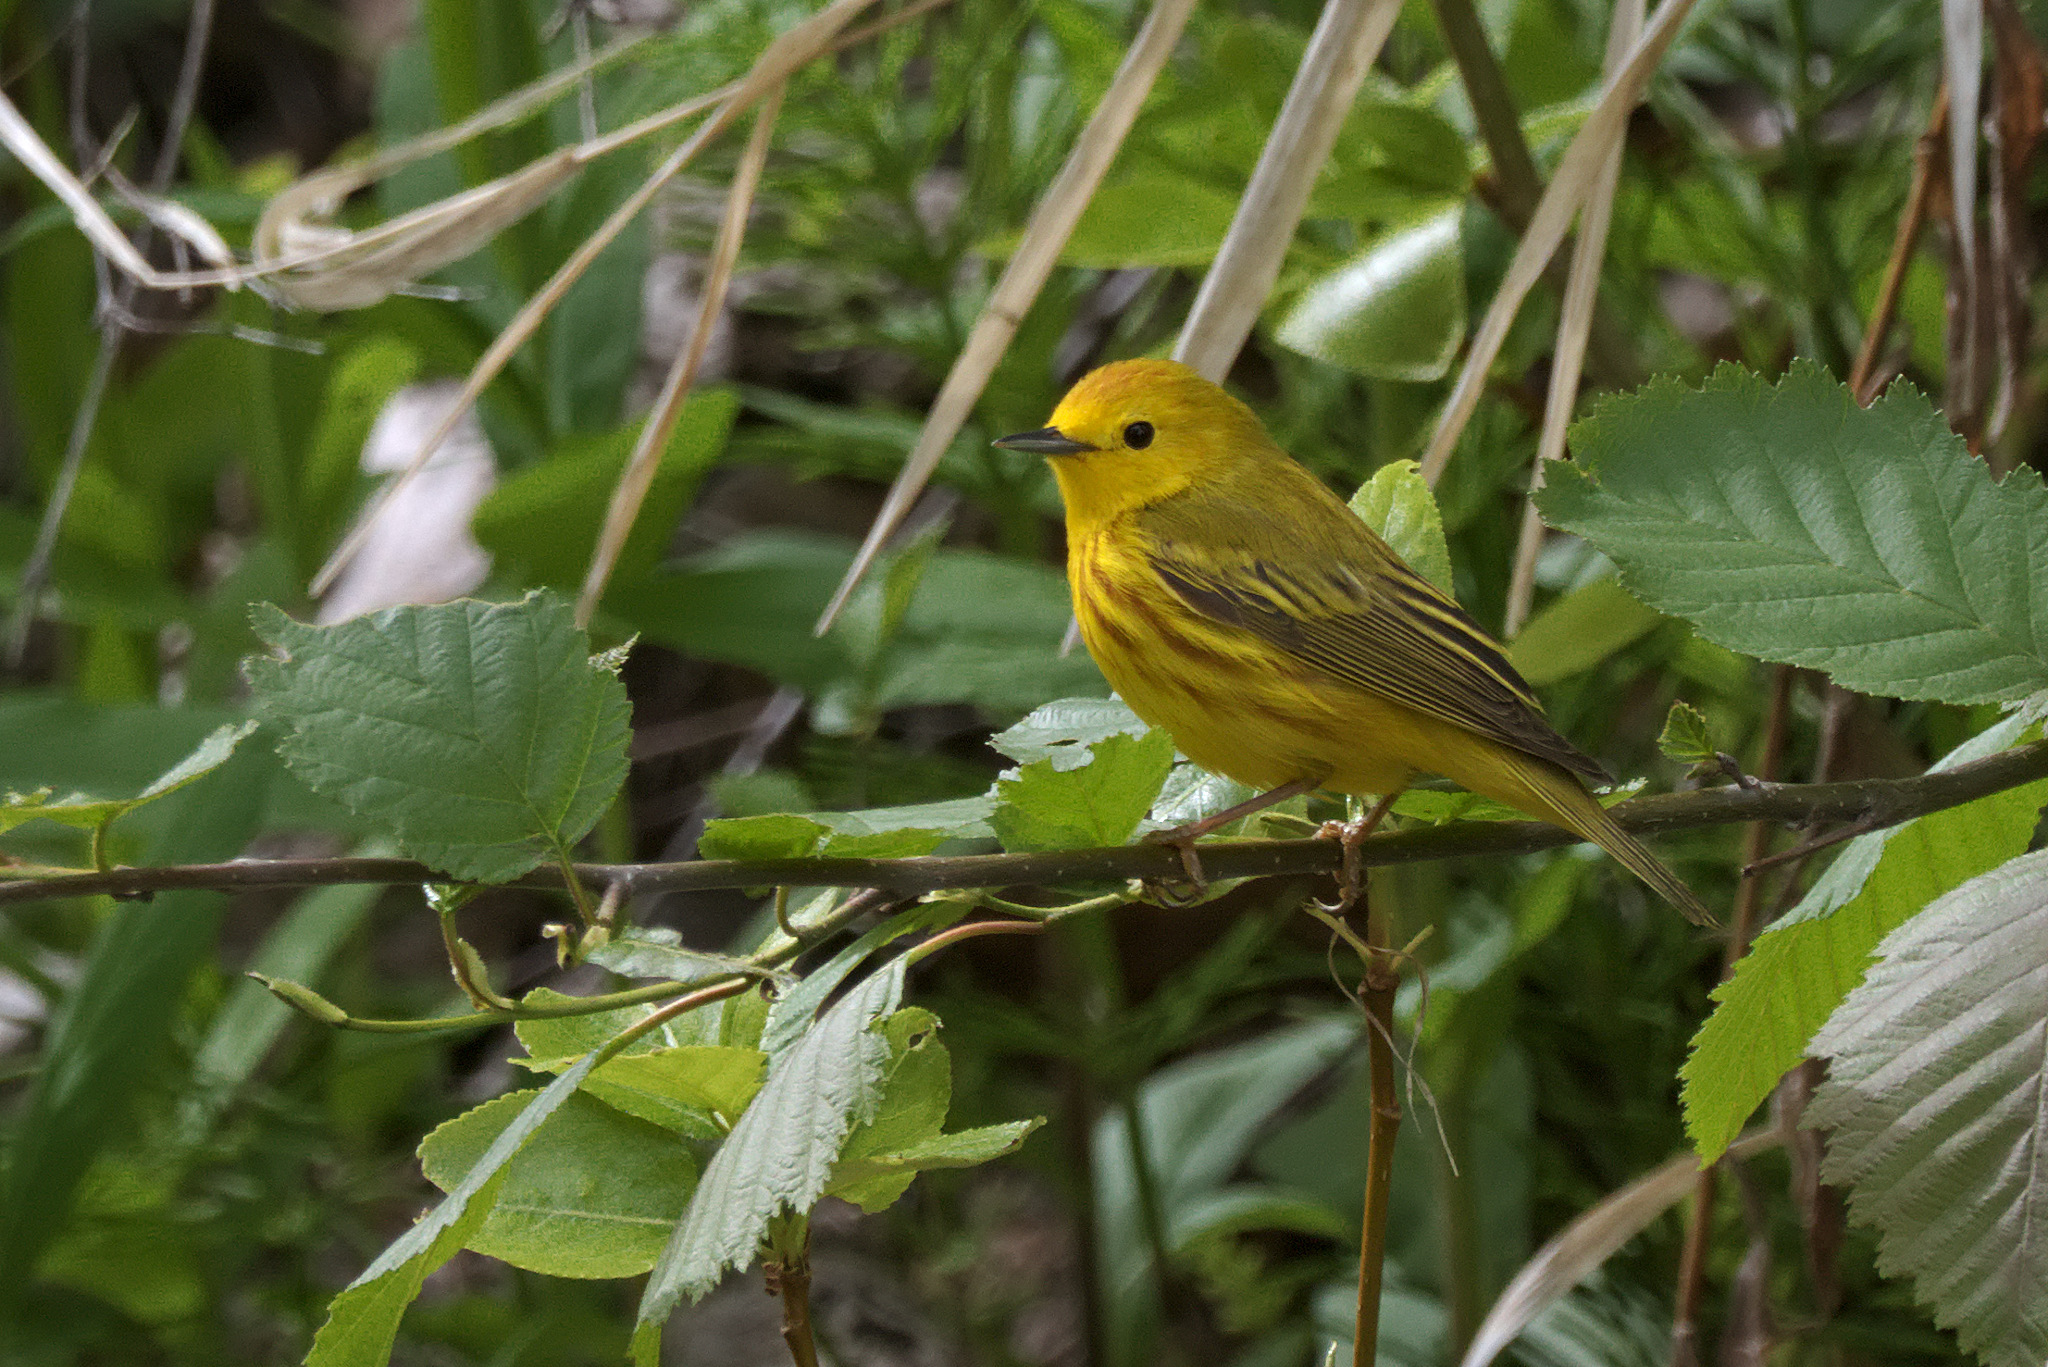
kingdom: Animalia
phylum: Chordata
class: Aves
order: Passeriformes
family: Parulidae
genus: Setophaga
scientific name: Setophaga petechia
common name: Yellow warbler
